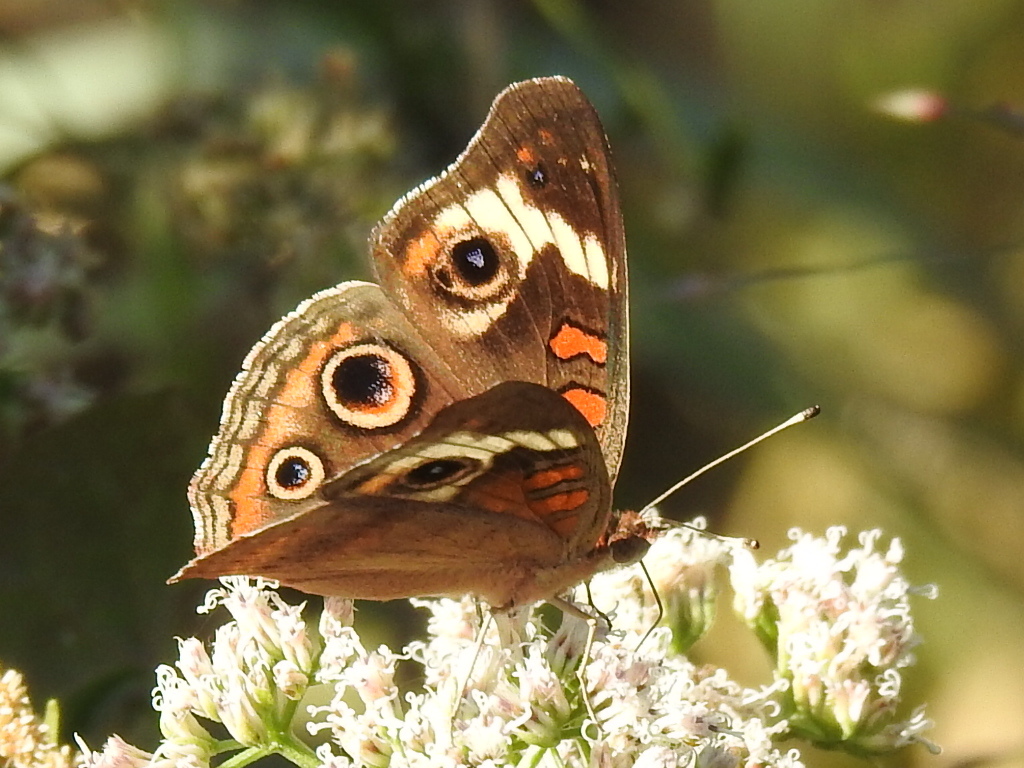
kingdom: Animalia
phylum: Arthropoda
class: Insecta
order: Lepidoptera
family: Nymphalidae
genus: Junonia
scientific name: Junonia coenia
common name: Common buckeye
